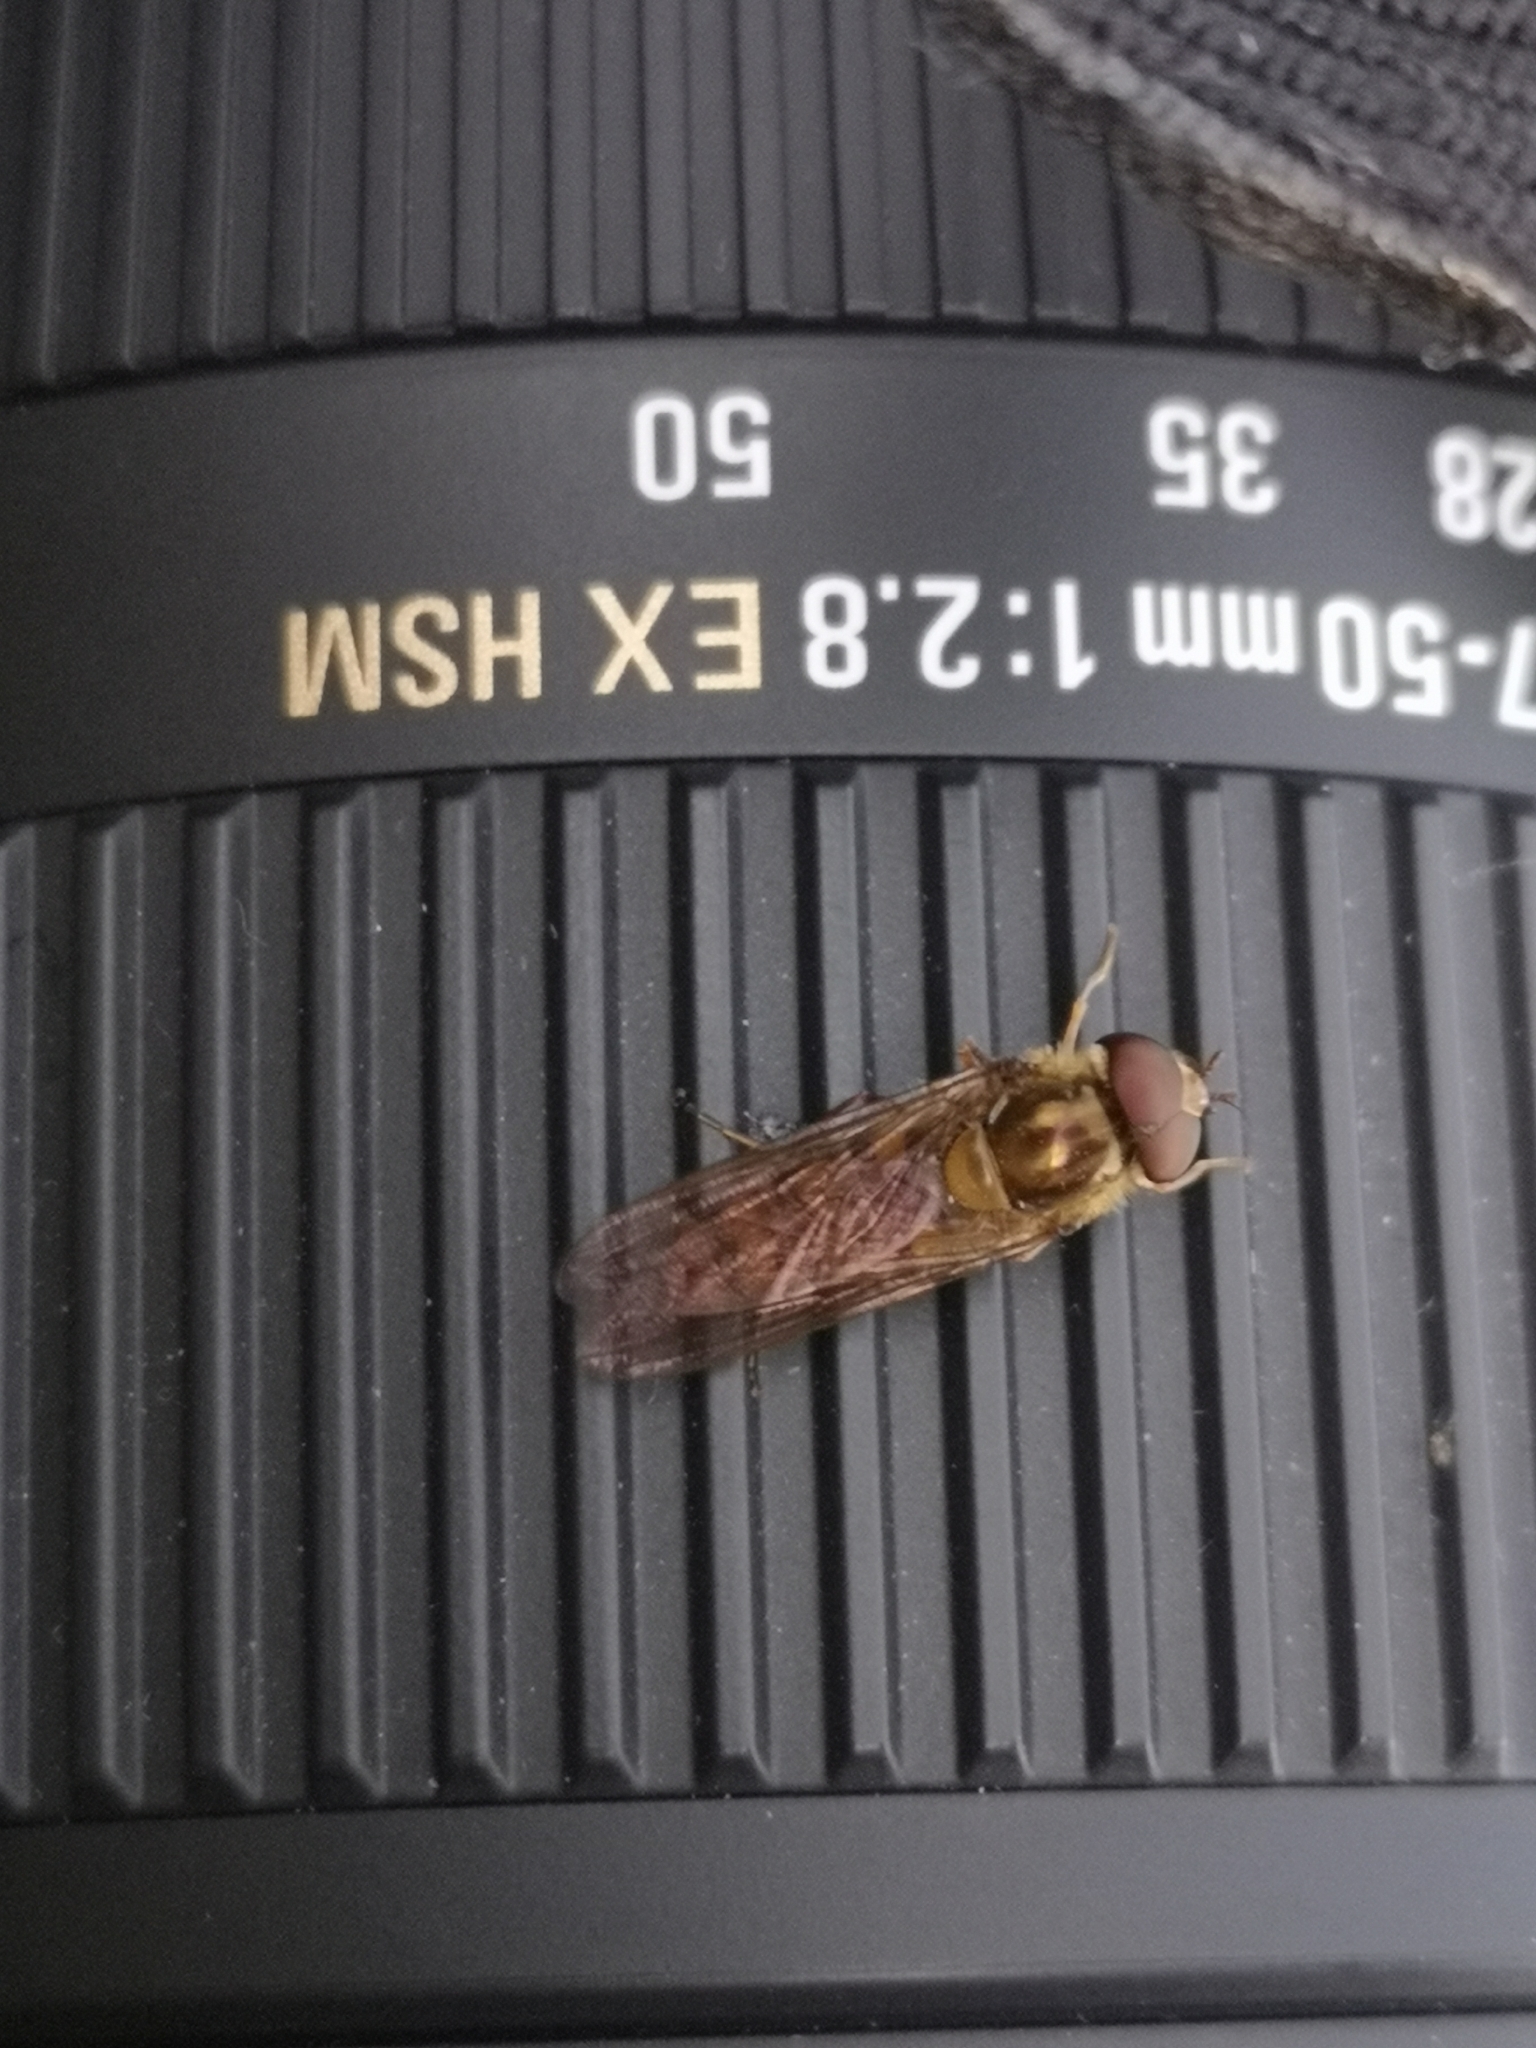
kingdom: Animalia
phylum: Arthropoda
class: Insecta
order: Diptera
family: Syrphidae
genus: Episyrphus
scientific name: Episyrphus balteatus
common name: Marmalade hoverfly
